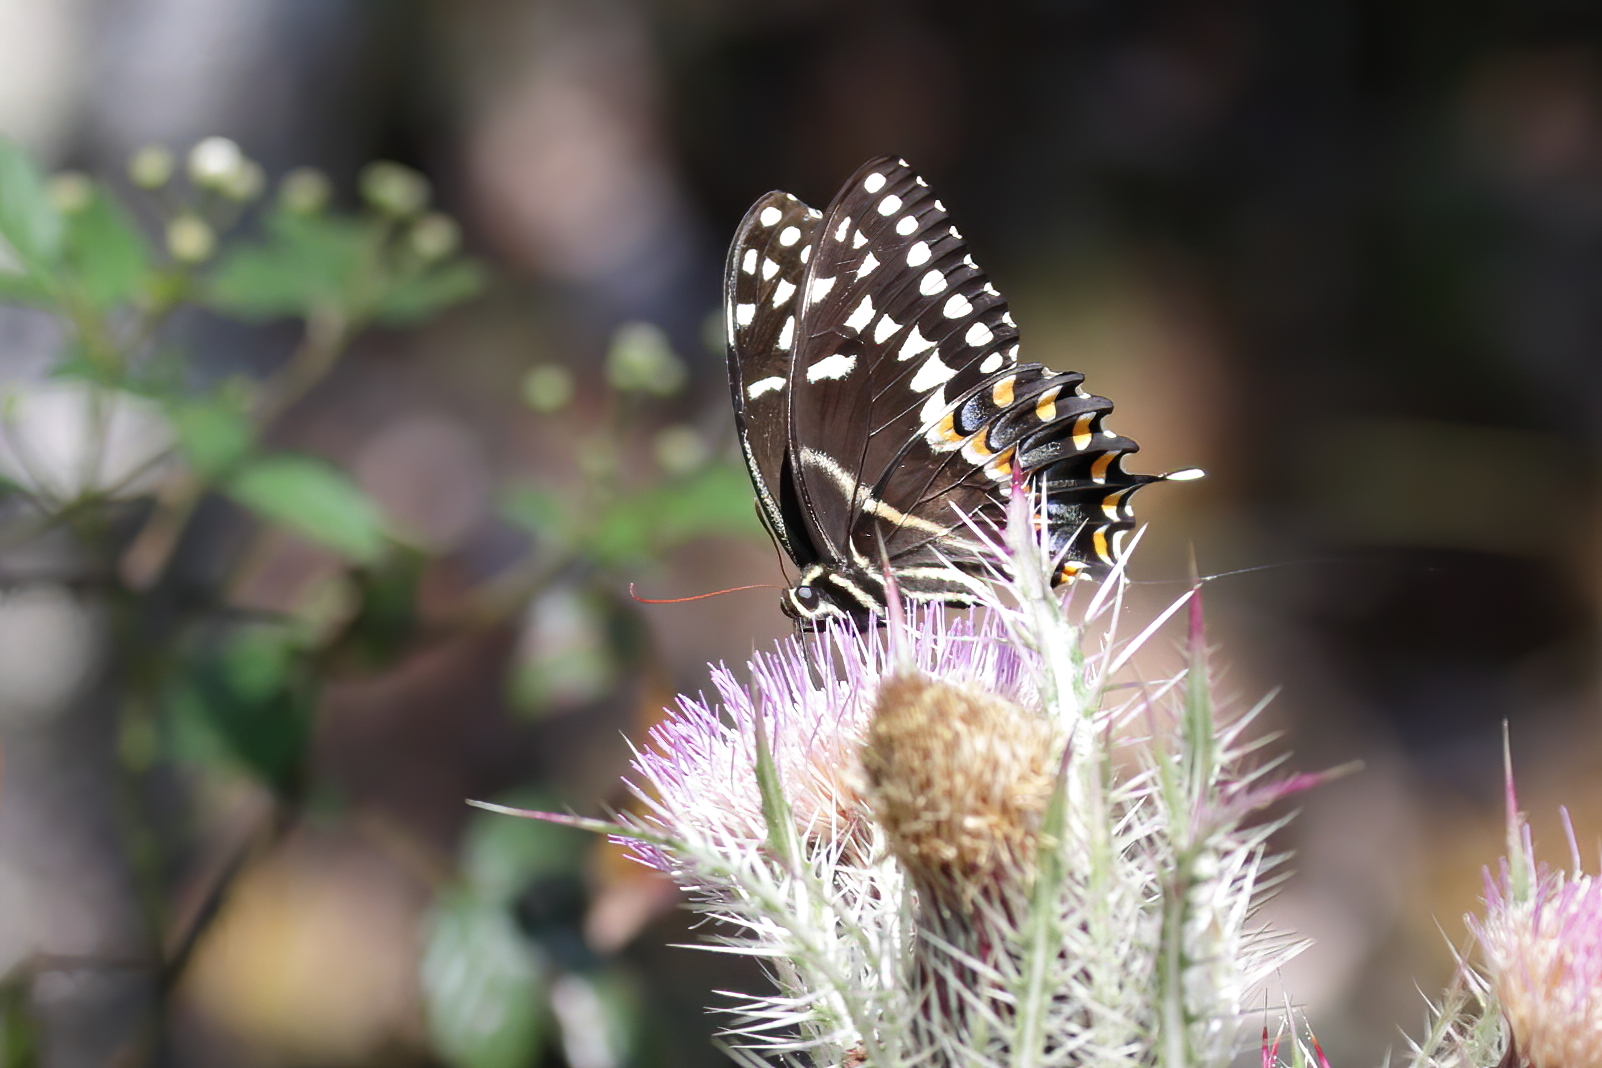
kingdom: Animalia
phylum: Arthropoda
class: Insecta
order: Lepidoptera
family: Papilionidae
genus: Papilio
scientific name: Papilio palamedes
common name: Palamedes swallowtail
